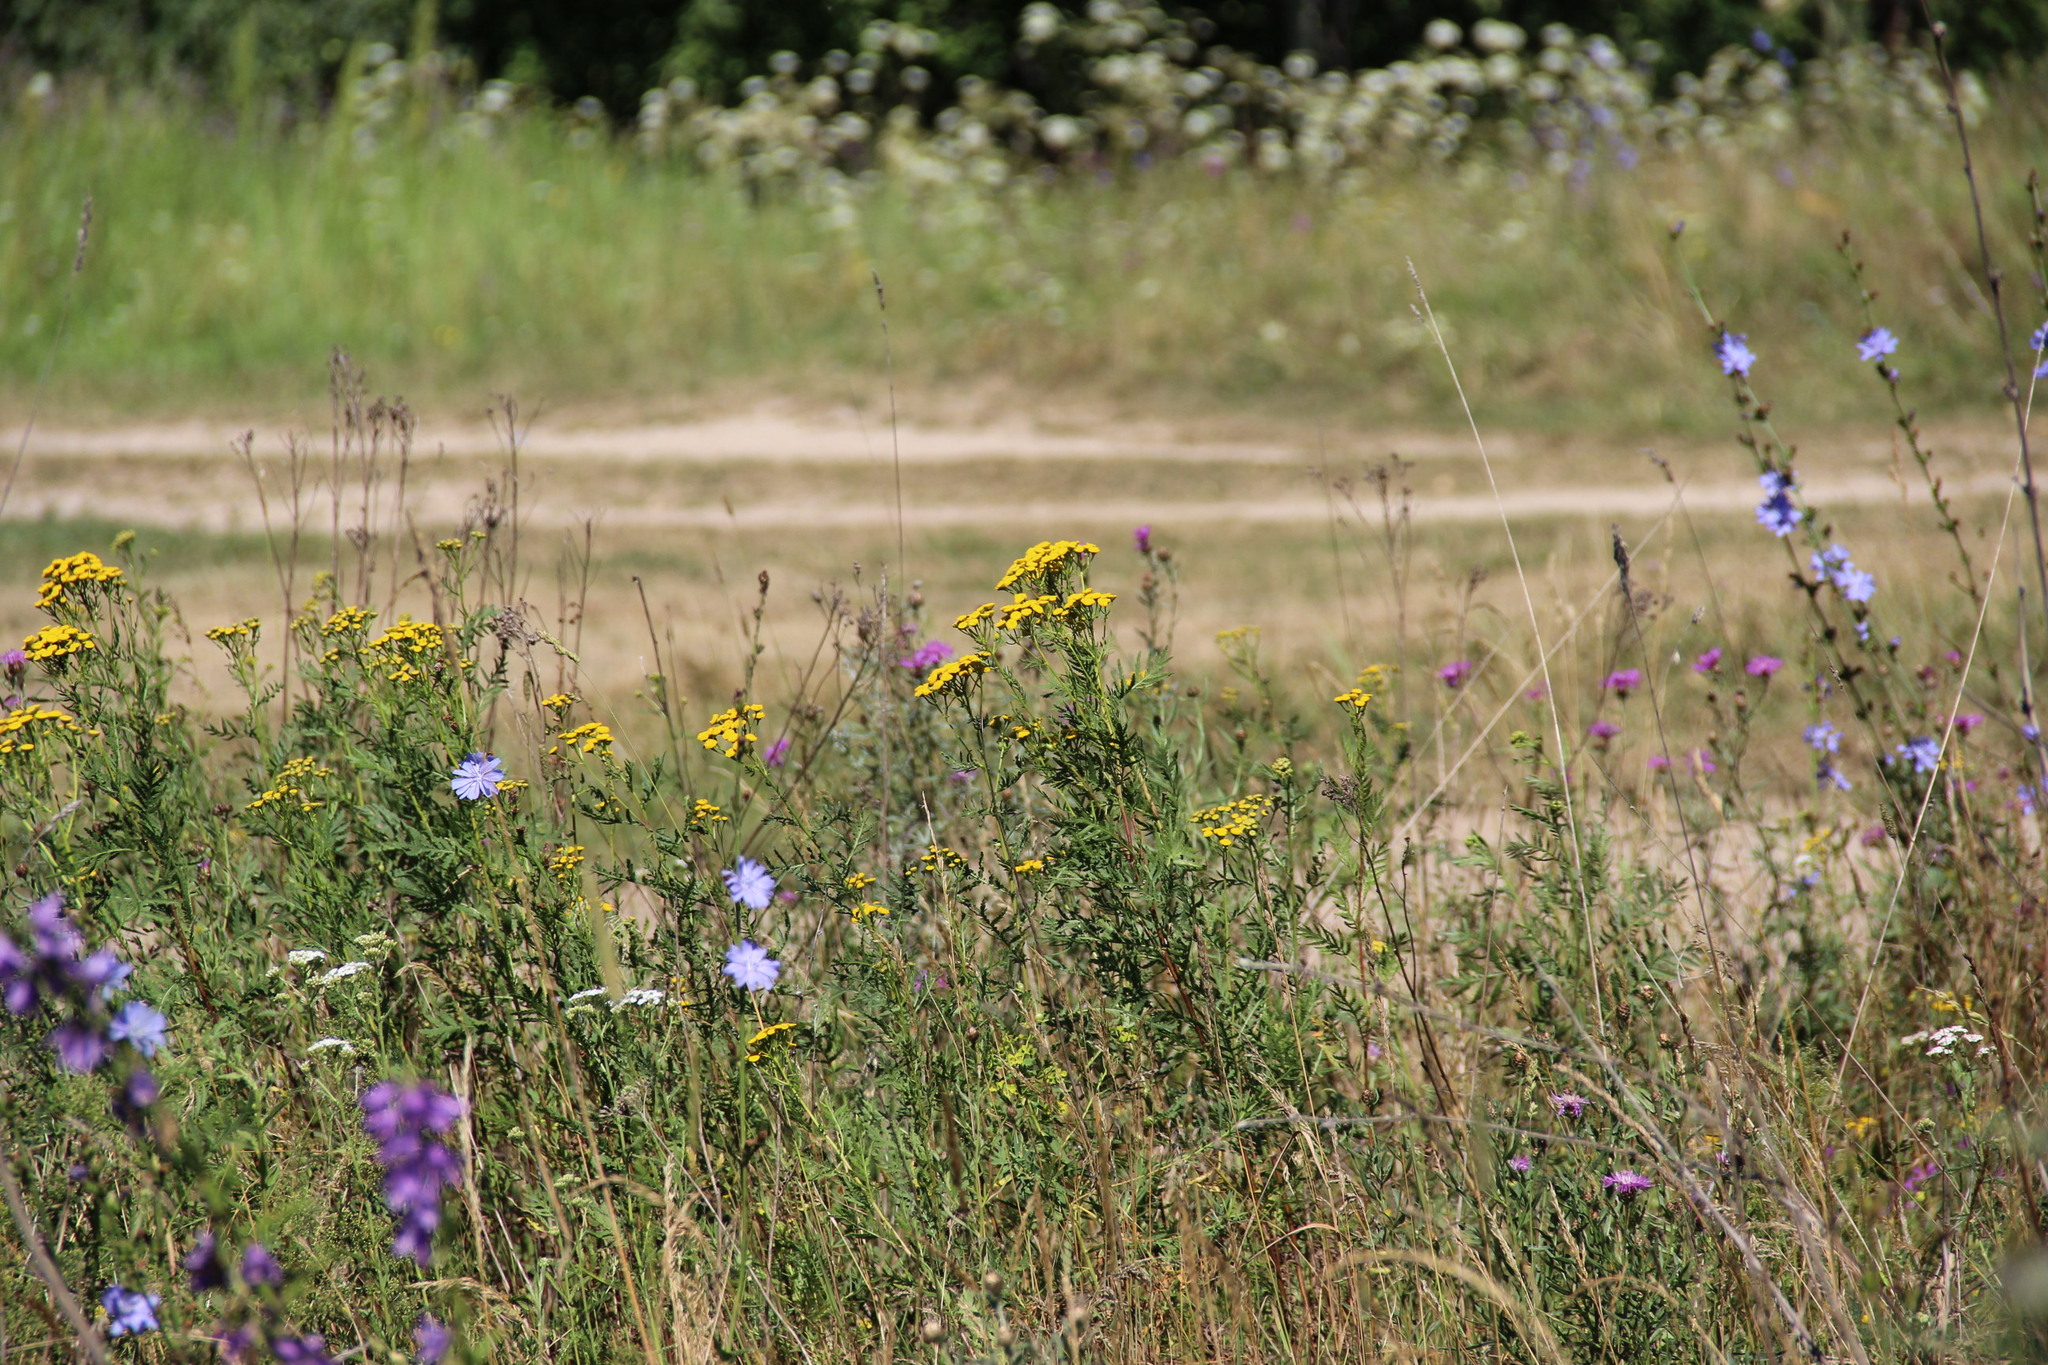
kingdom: Plantae
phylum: Tracheophyta
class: Magnoliopsida
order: Asterales
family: Asteraceae
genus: Tanacetum
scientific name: Tanacetum vulgare
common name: Common tansy
